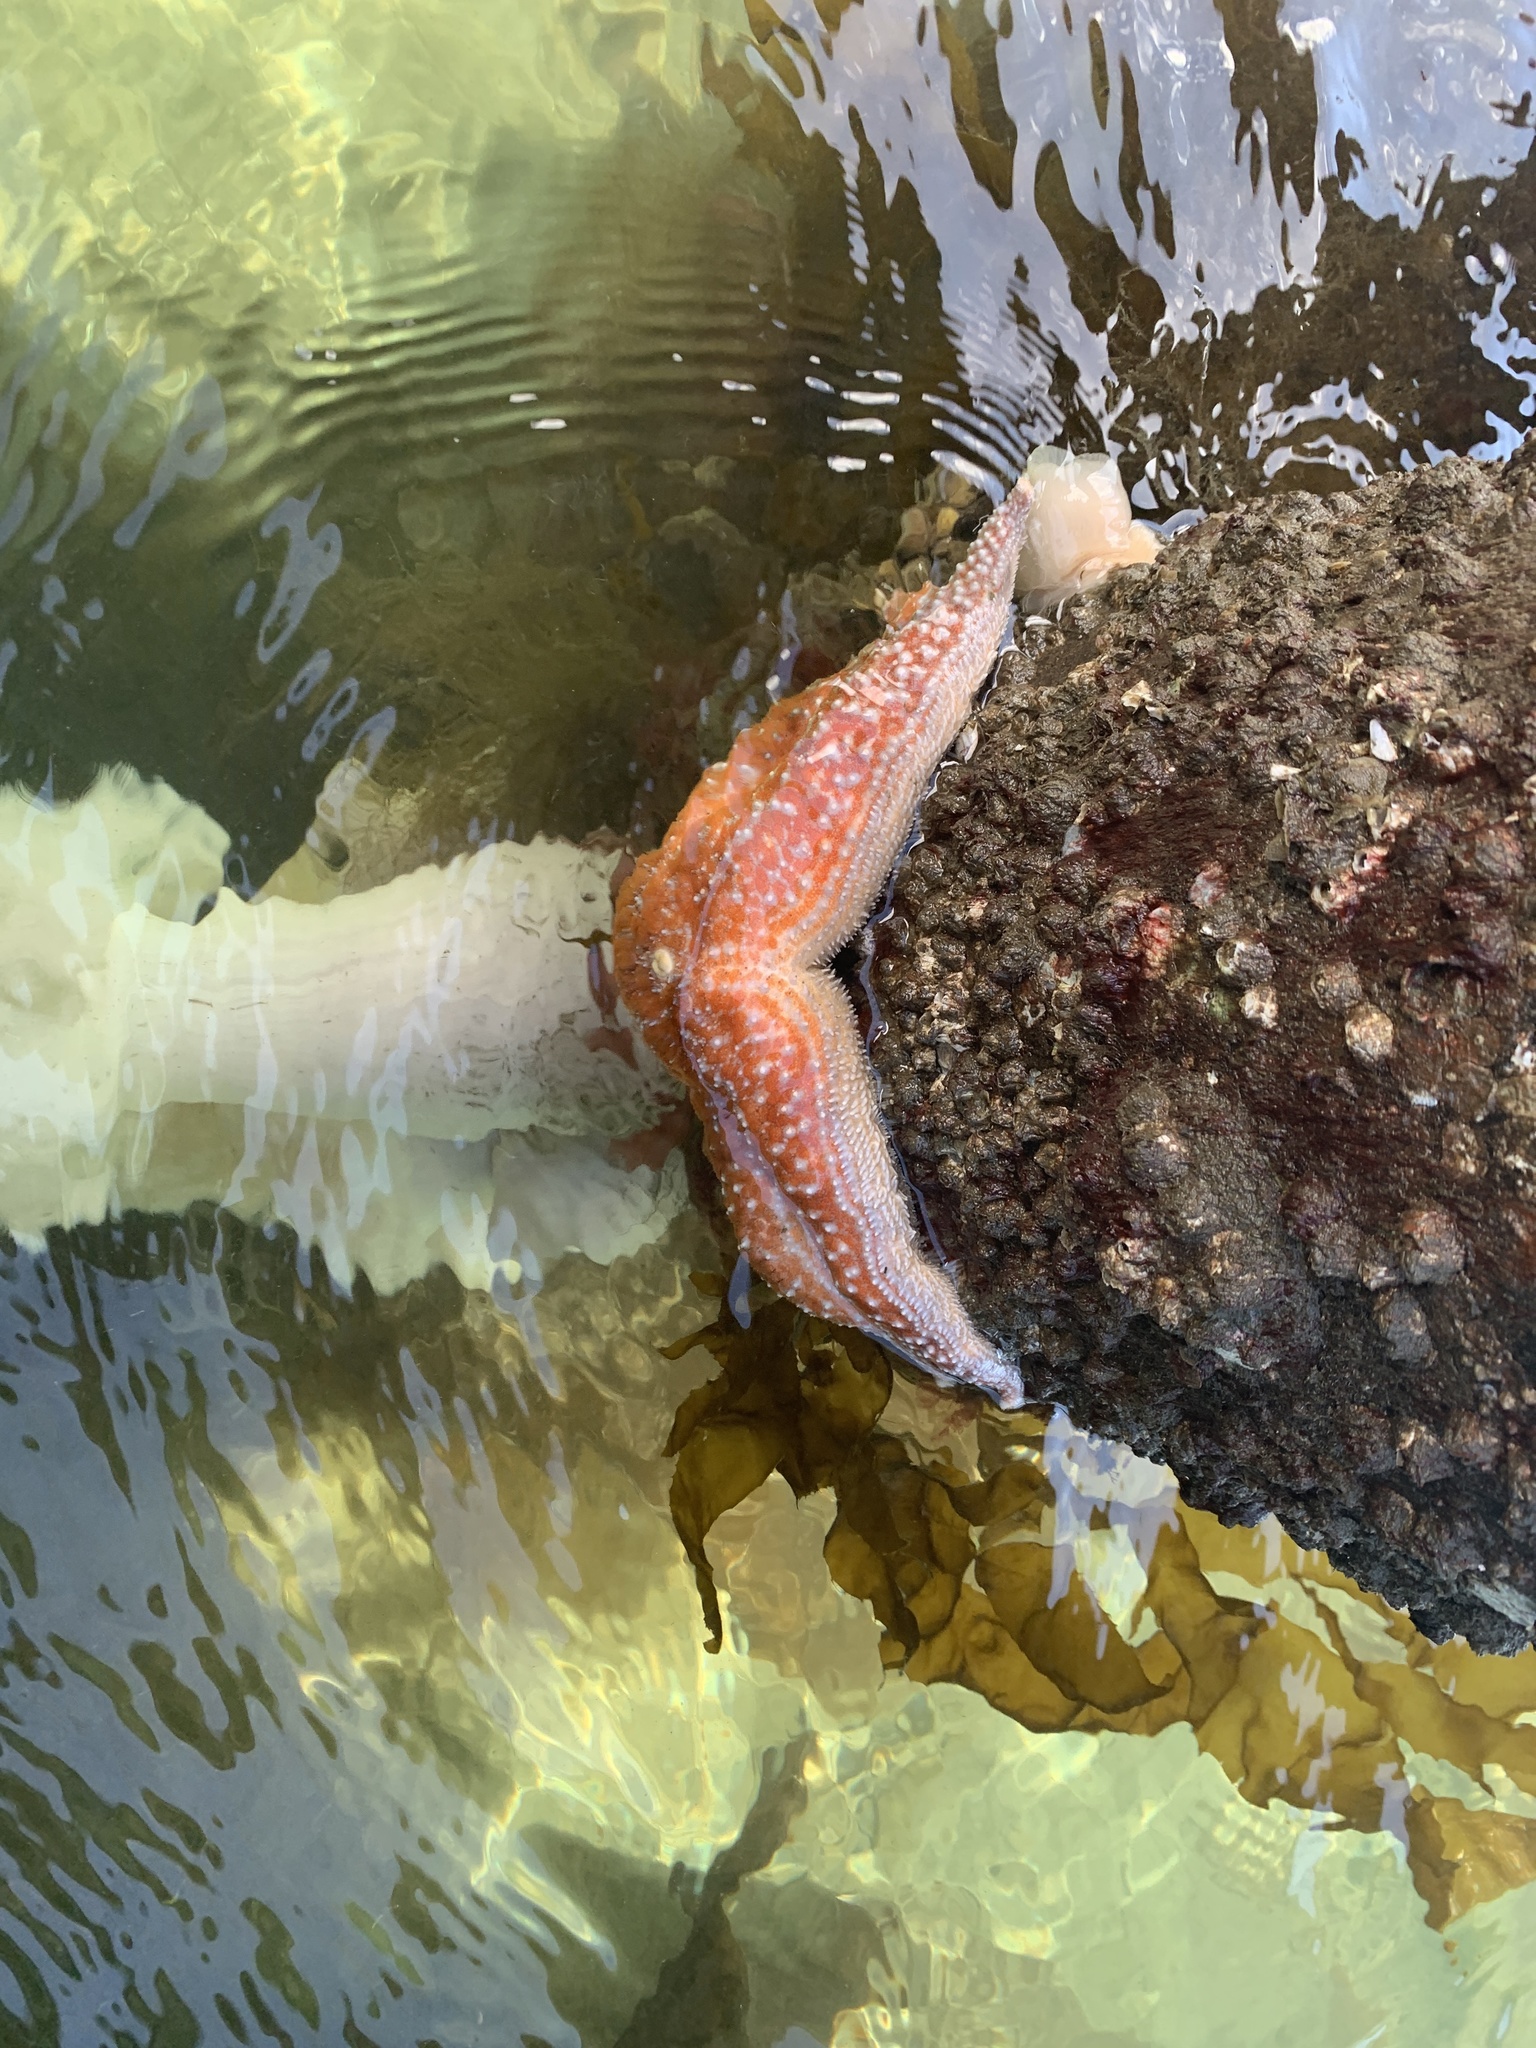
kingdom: Animalia
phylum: Echinodermata
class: Asteroidea
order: Forcipulatida
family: Asteriidae
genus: Evasterias
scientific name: Evasterias troschelii
